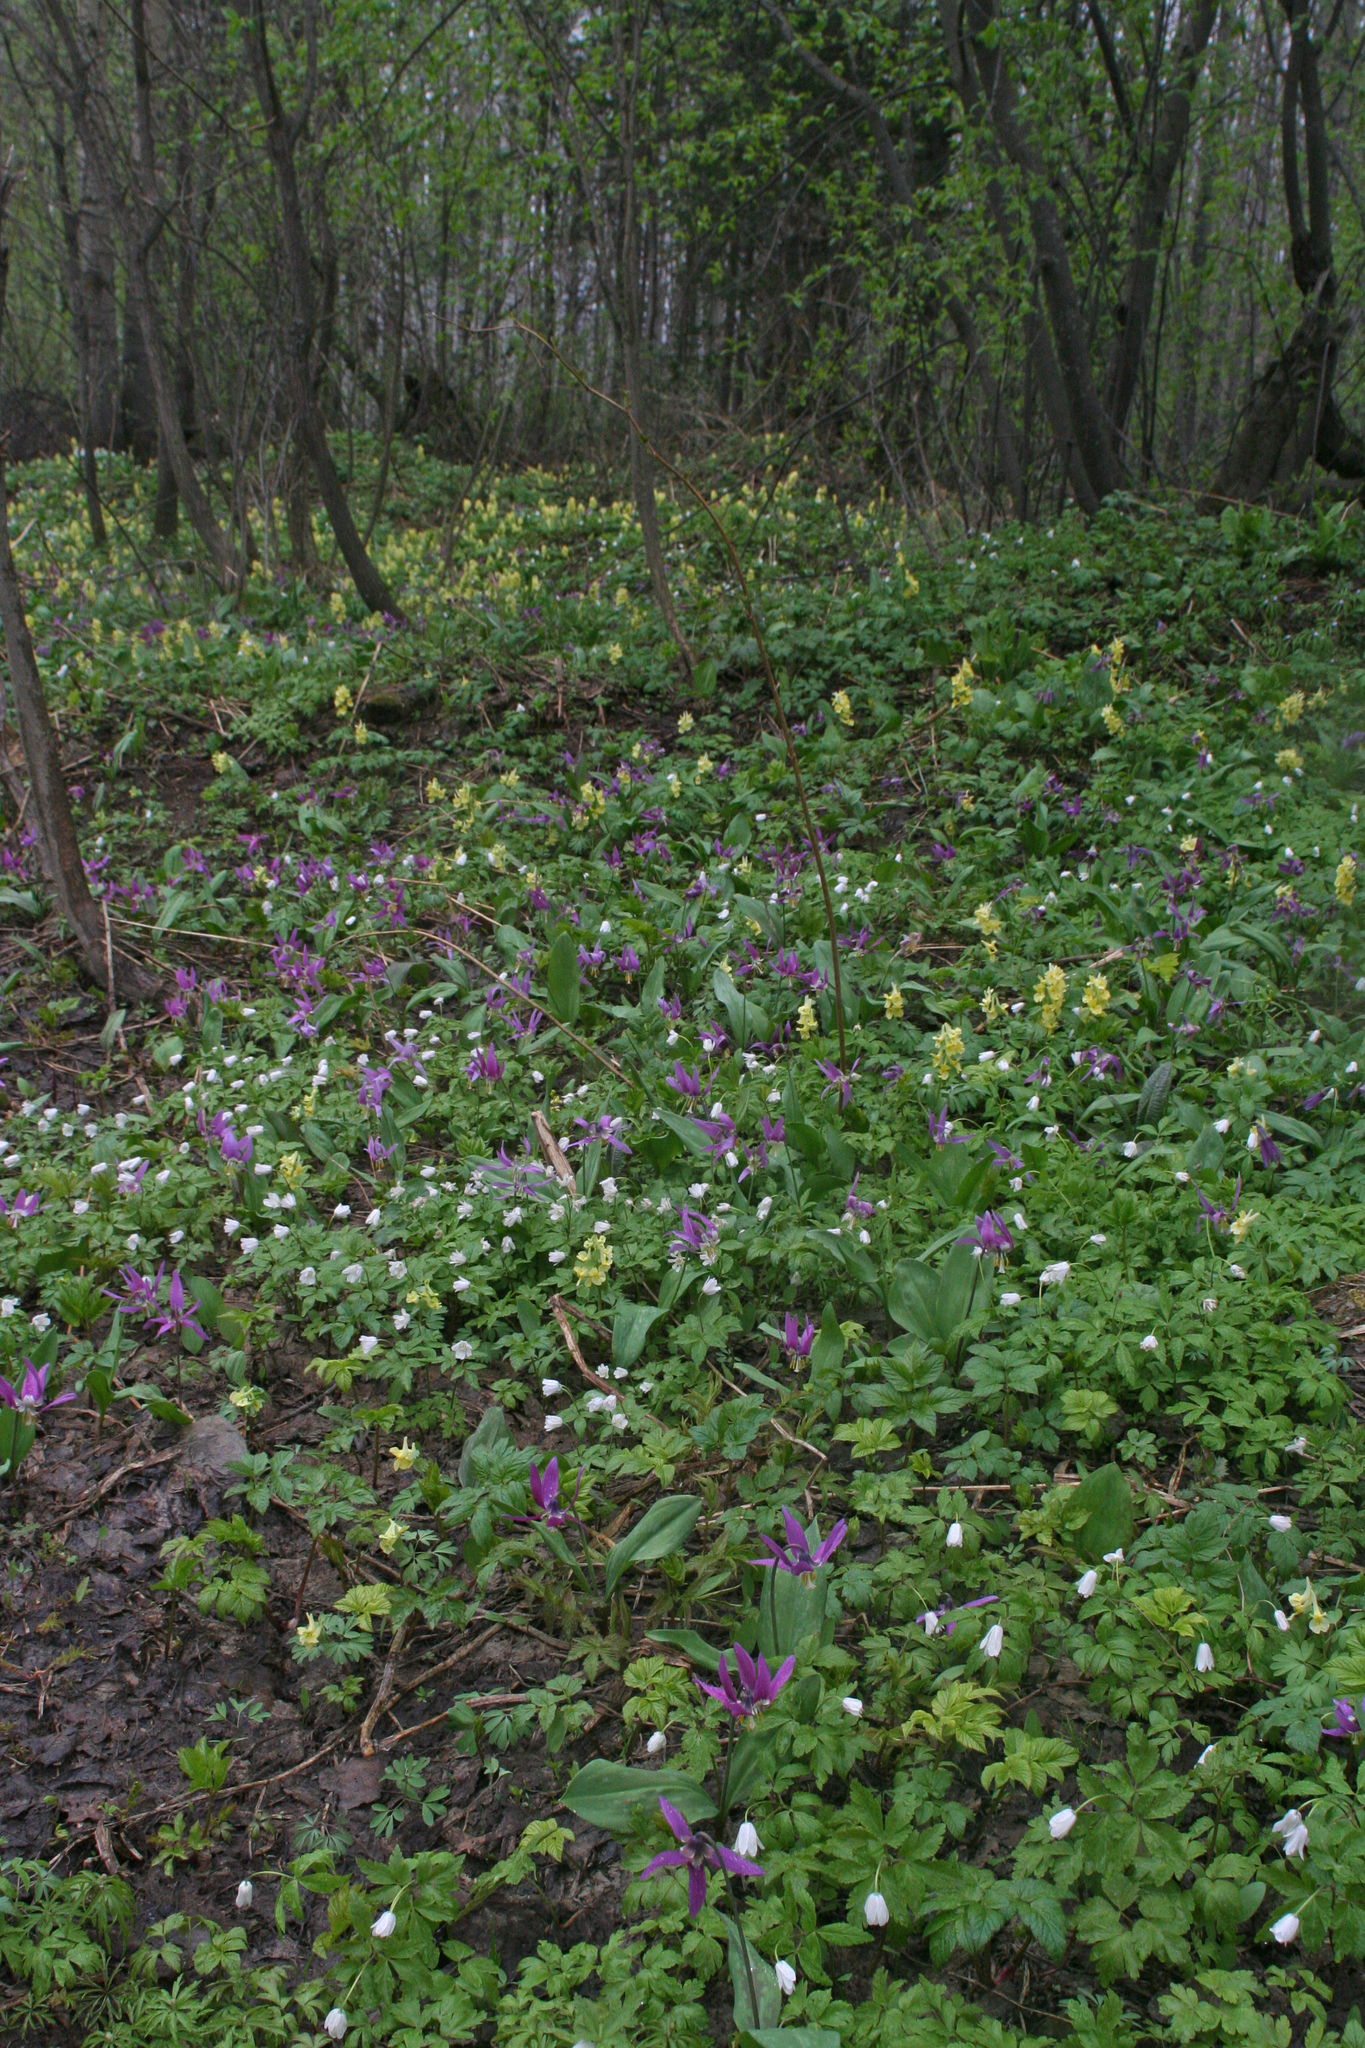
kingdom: Plantae
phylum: Tracheophyta
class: Magnoliopsida
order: Ranunculales
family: Ranunculaceae
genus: Anemone
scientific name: Anemone altaica
